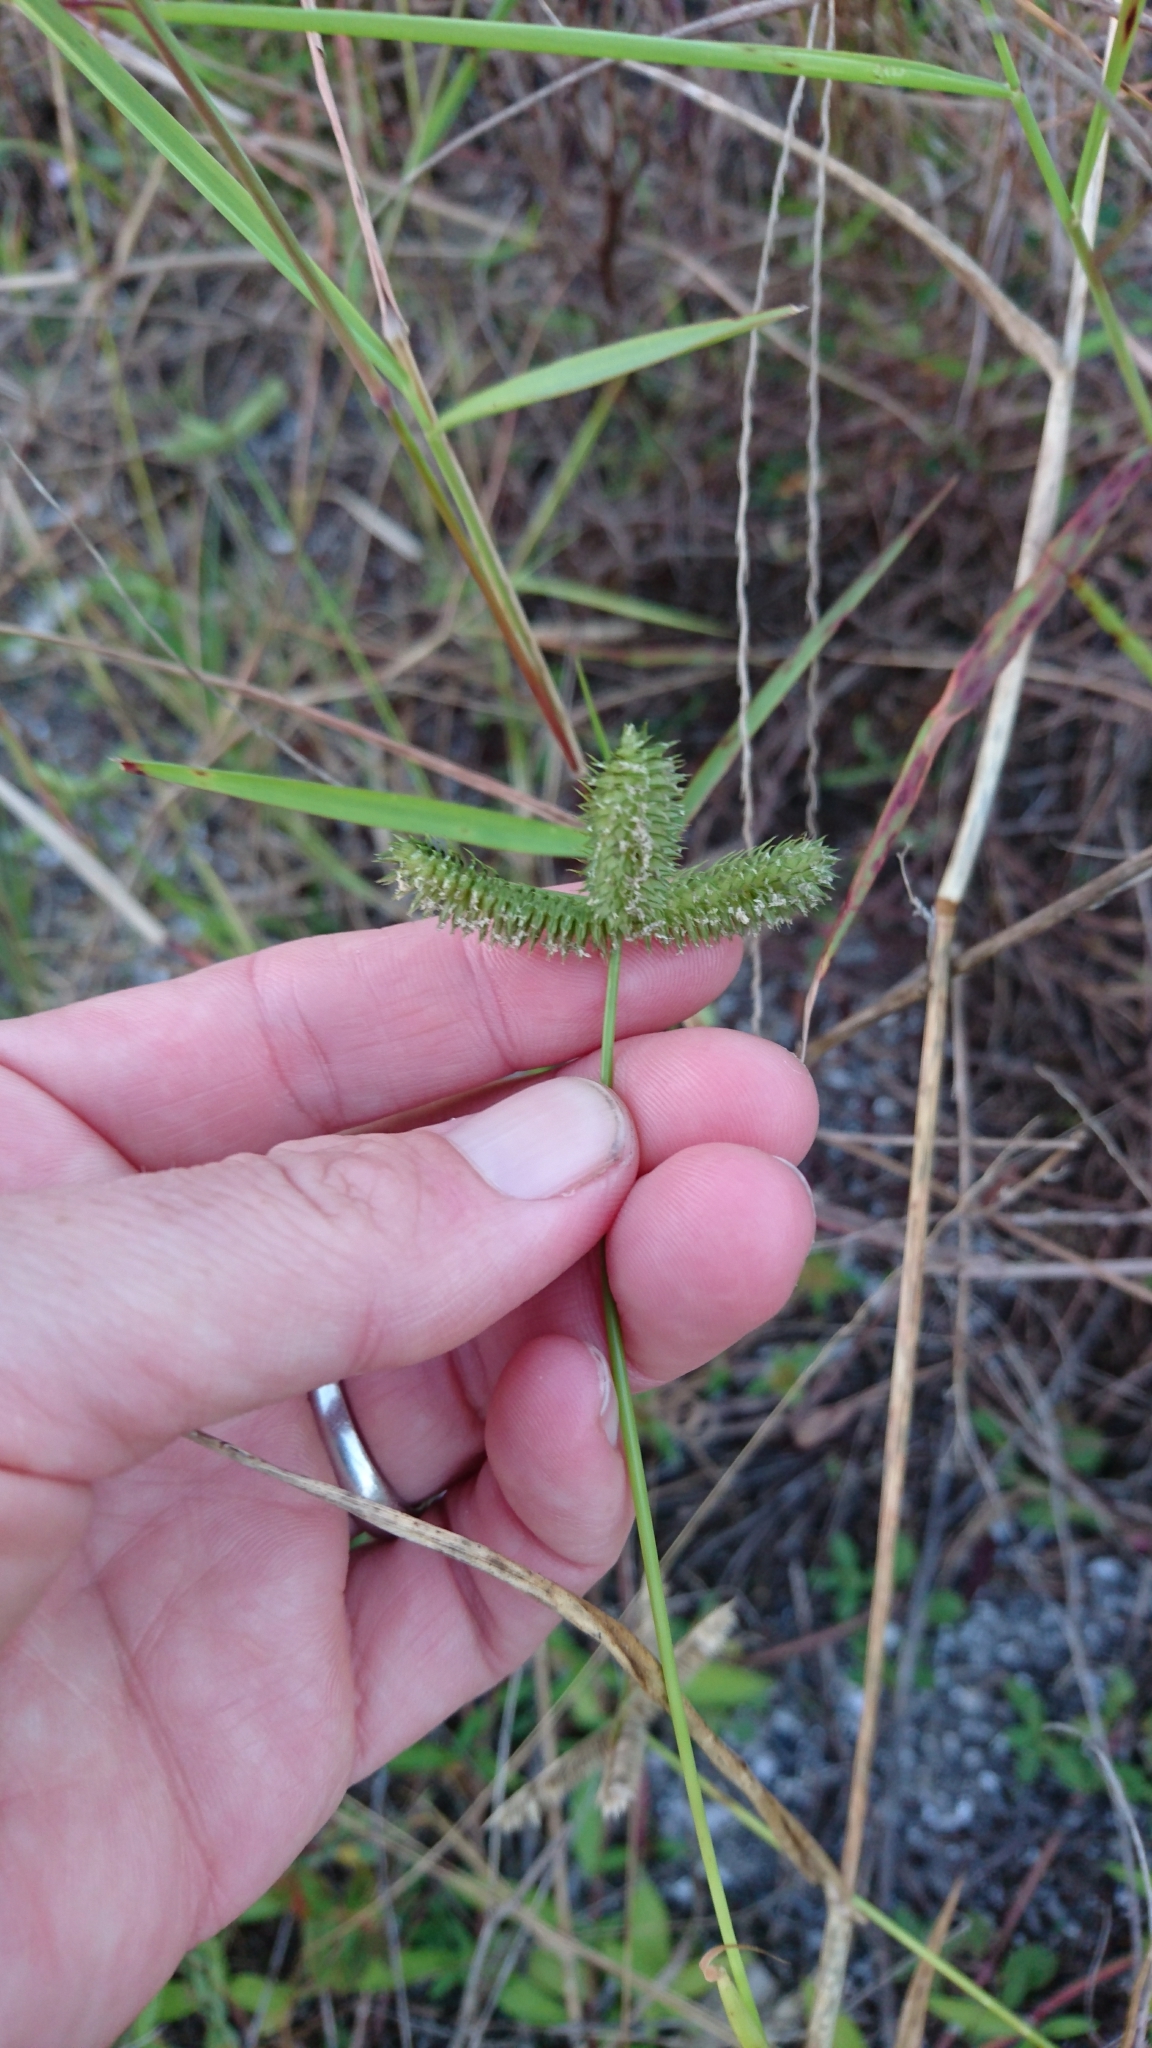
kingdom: Plantae
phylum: Tracheophyta
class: Liliopsida
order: Poales
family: Poaceae
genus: Dactyloctenium
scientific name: Dactyloctenium aegyptium
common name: Egyptian grass
